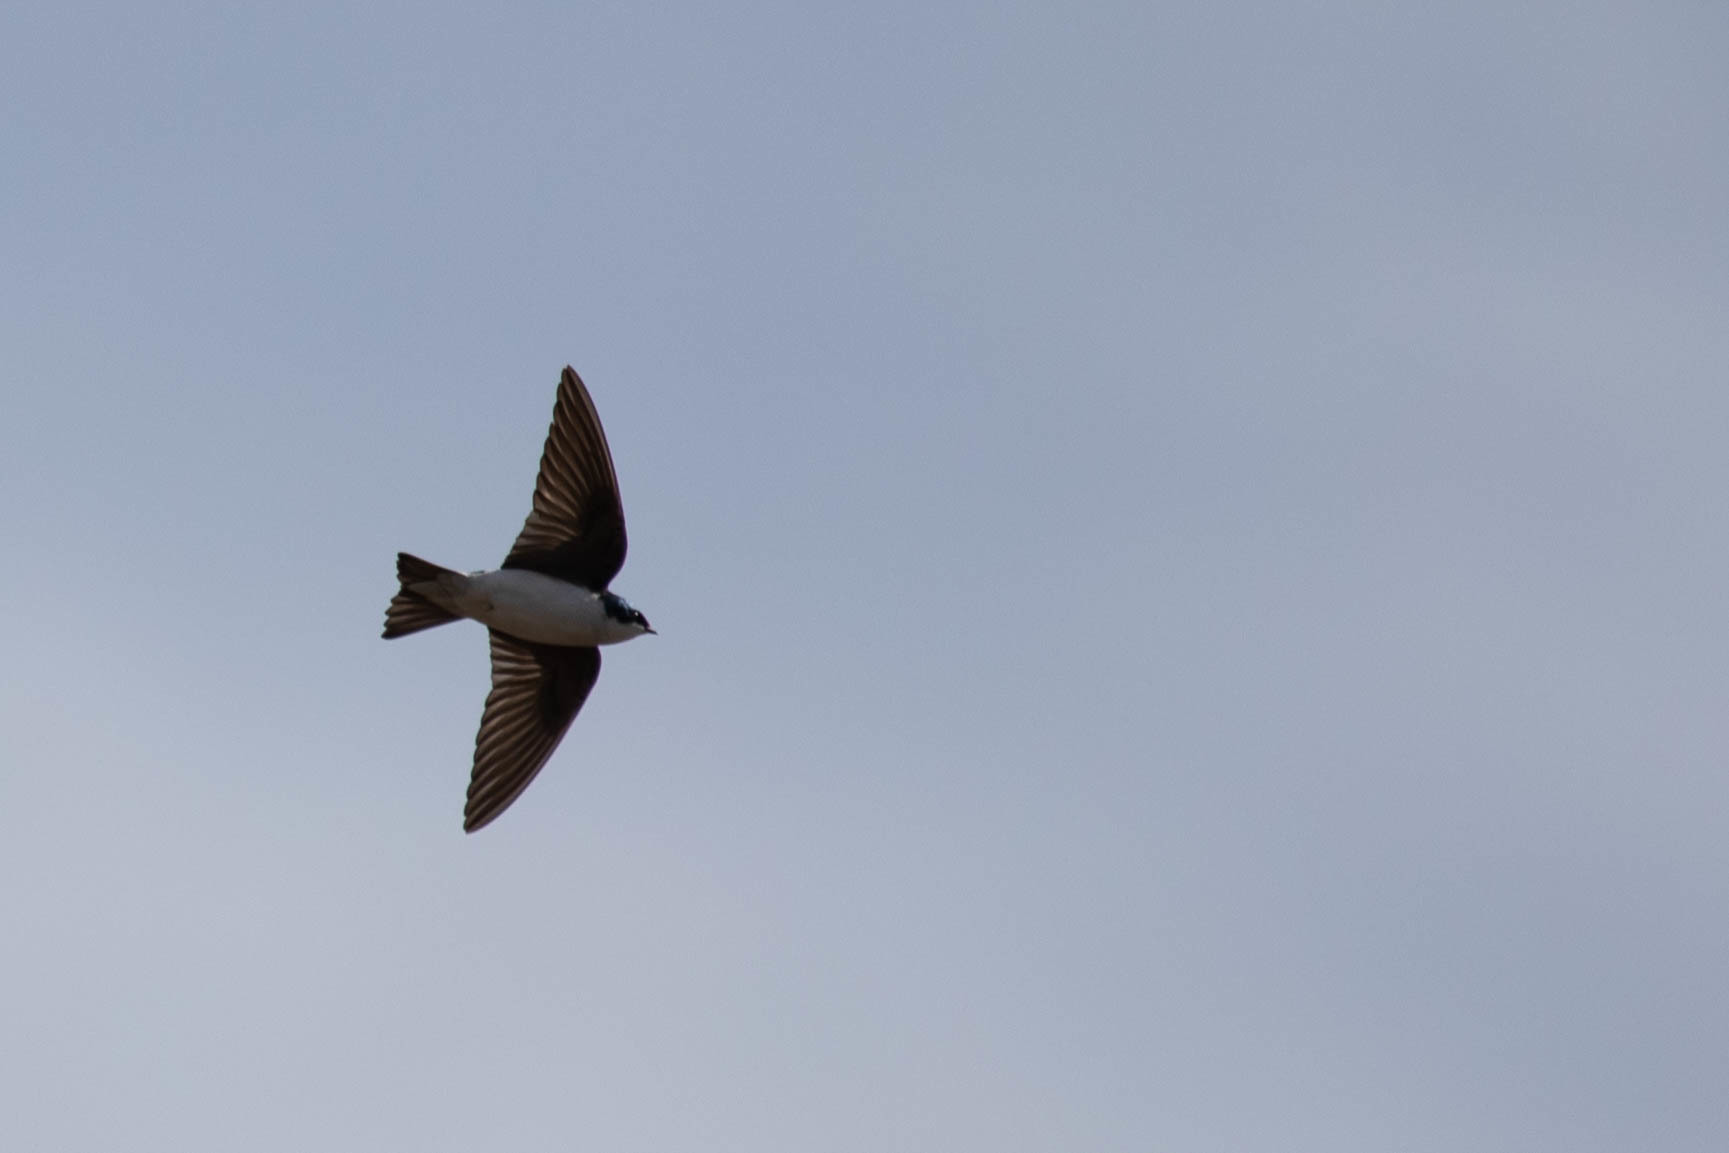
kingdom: Animalia
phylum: Chordata
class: Aves
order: Passeriformes
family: Hirundinidae
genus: Tachycineta
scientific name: Tachycineta bicolor
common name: Tree swallow
